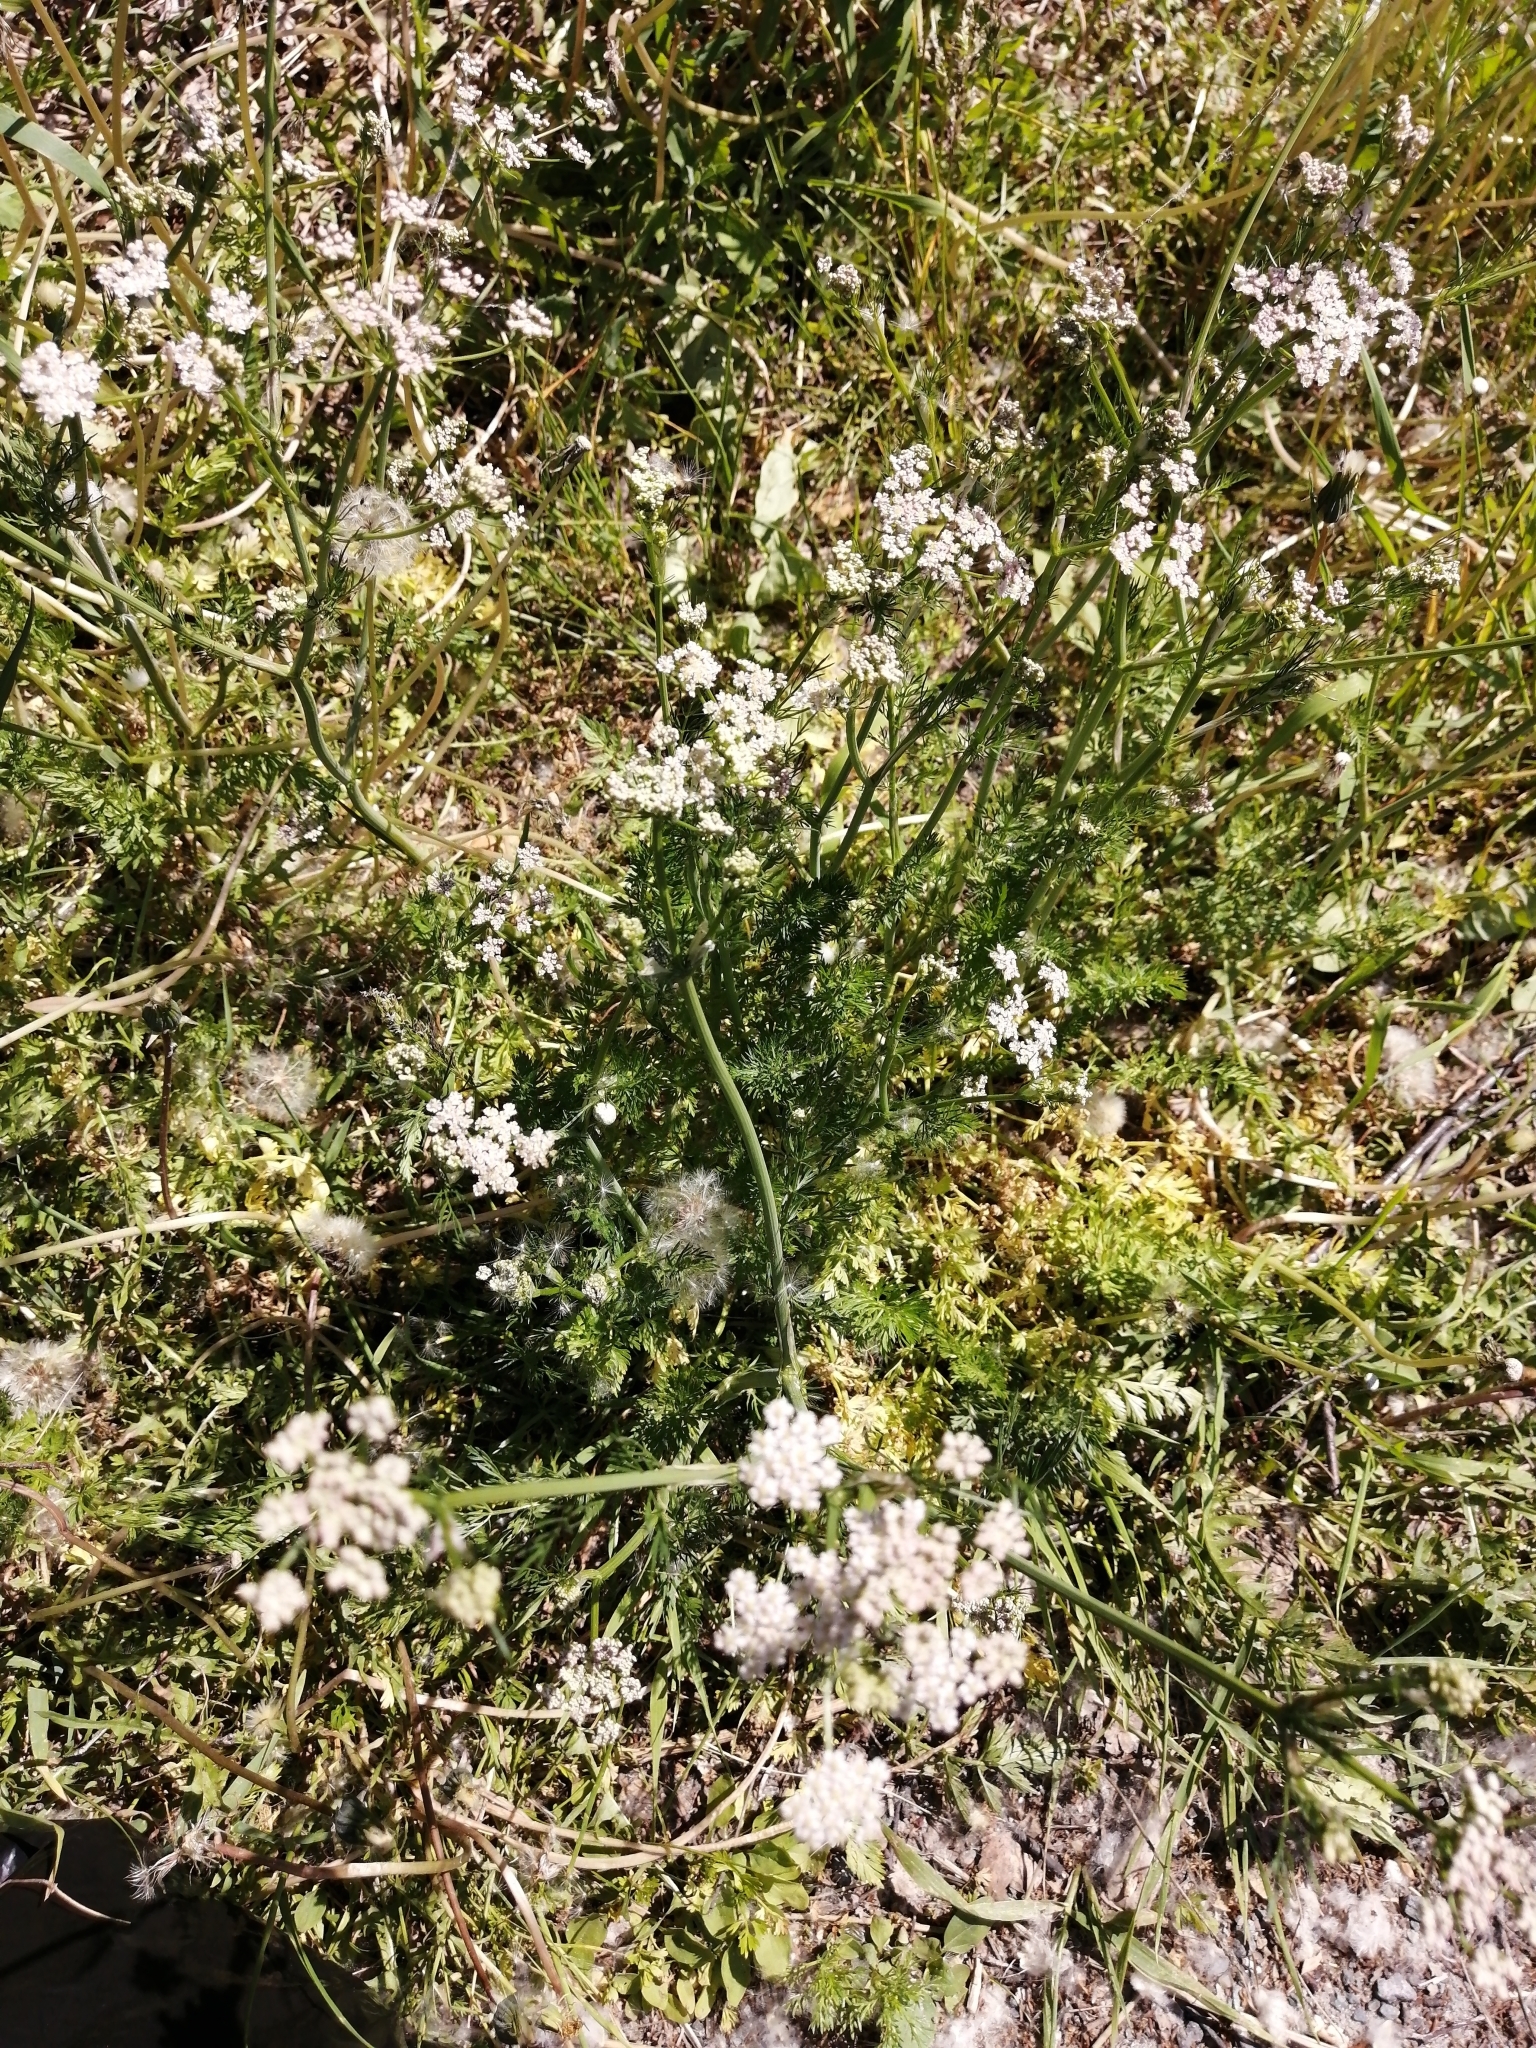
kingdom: Plantae
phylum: Tracheophyta
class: Magnoliopsida
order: Apiales
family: Apiaceae
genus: Carum
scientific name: Carum carvi
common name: Caraway
